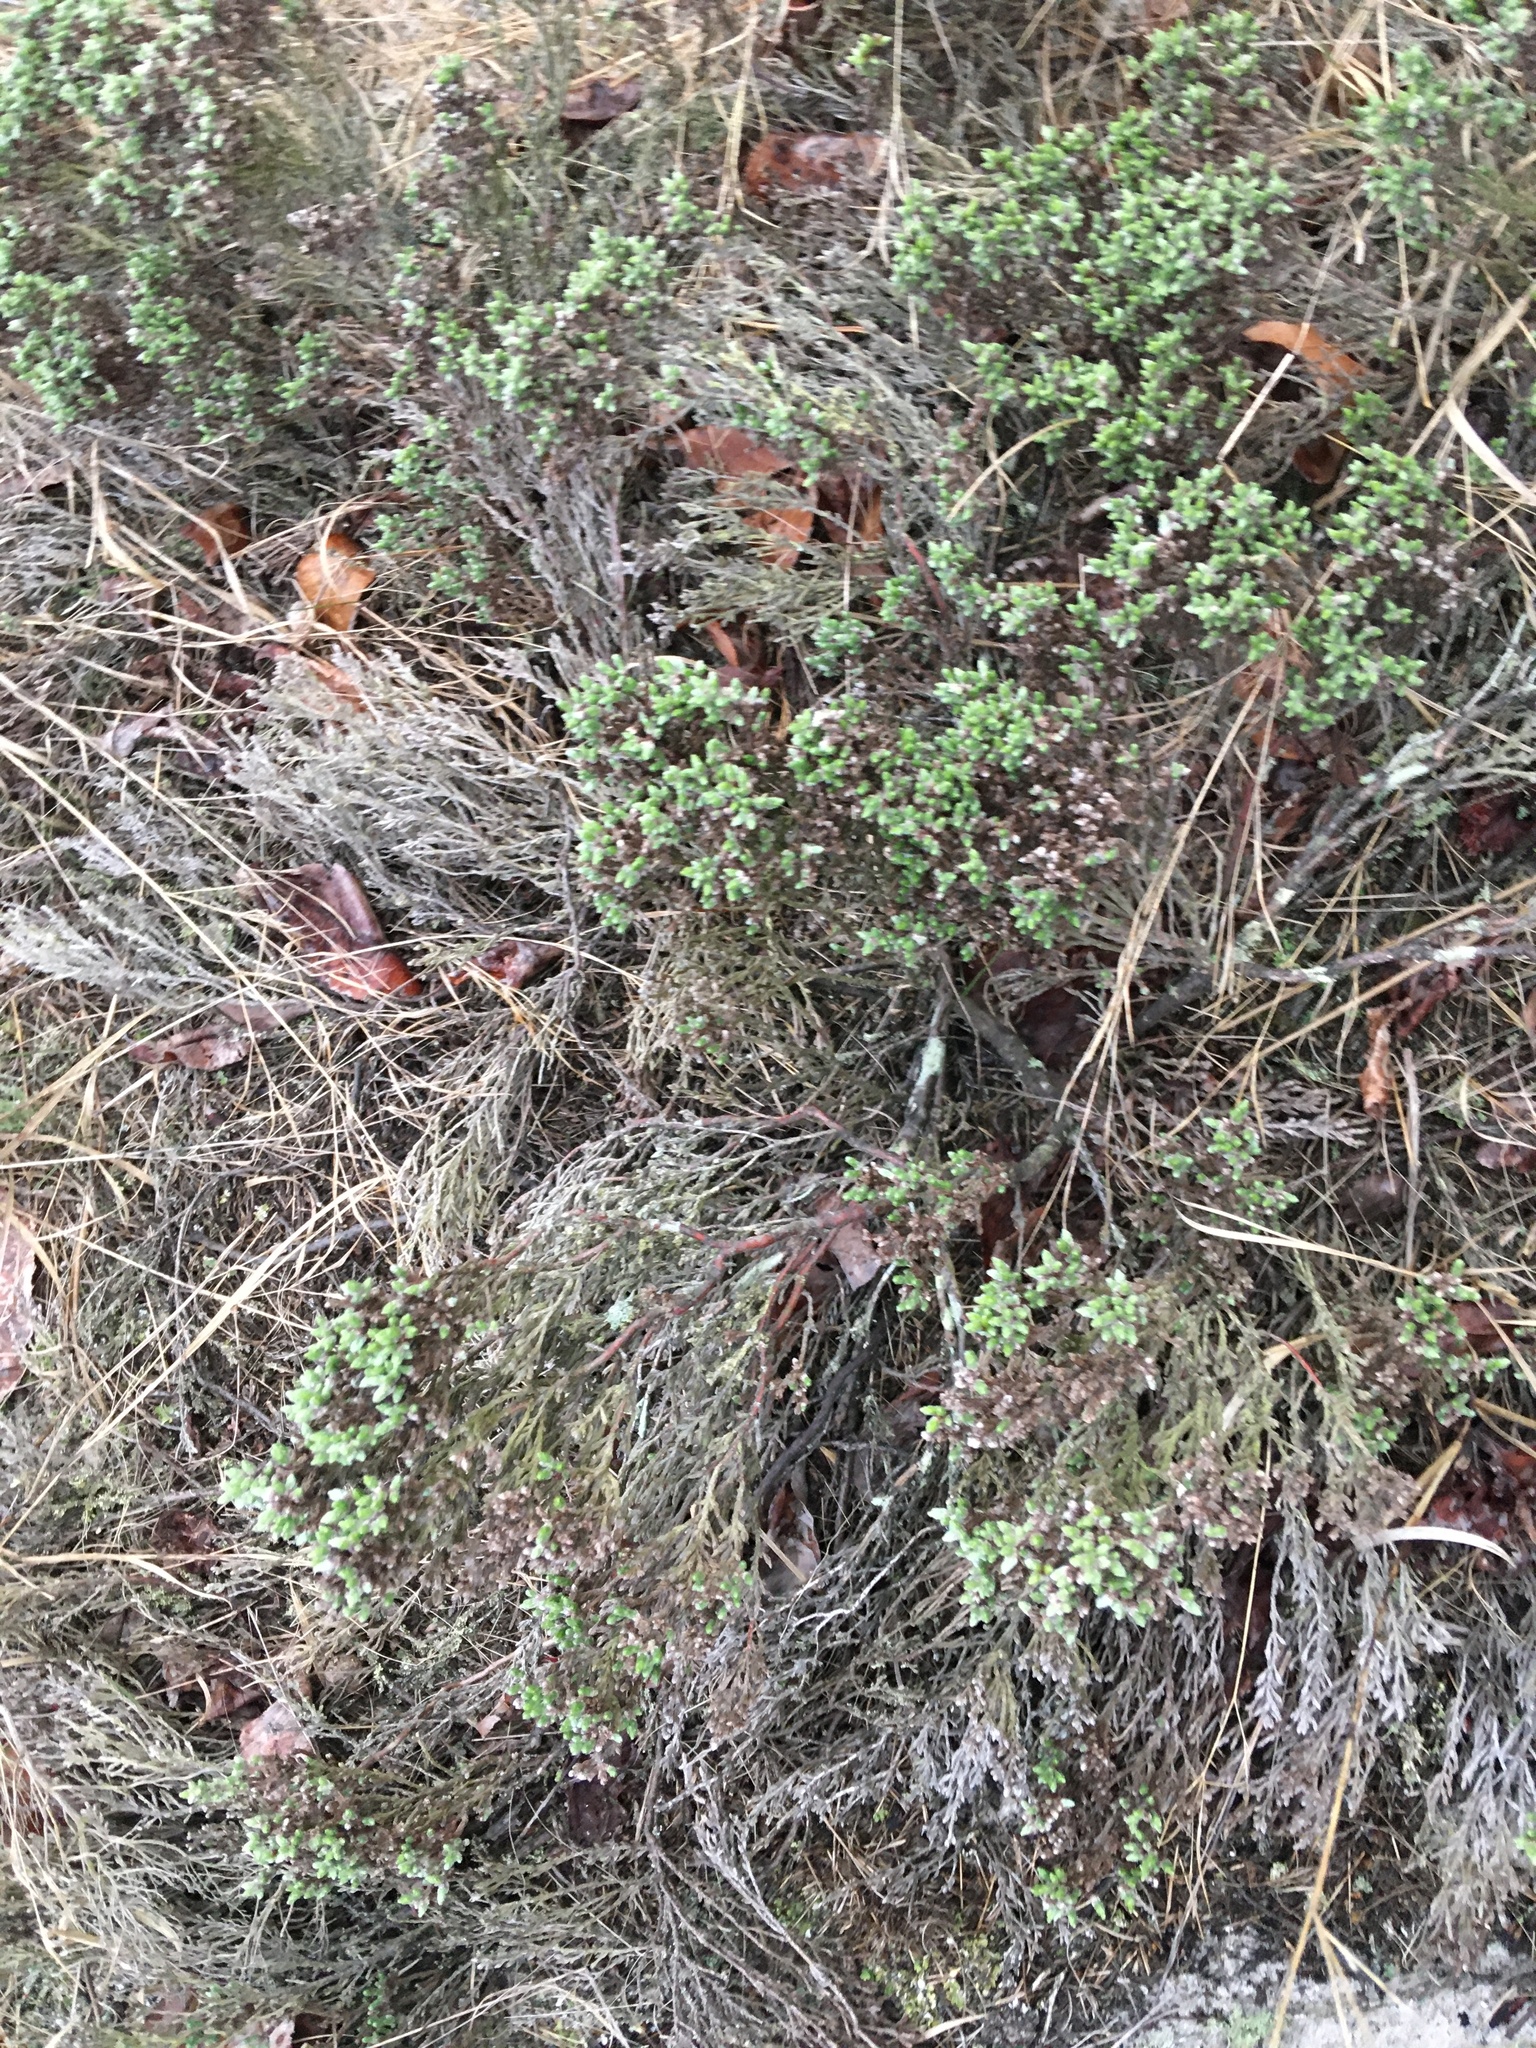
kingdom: Plantae
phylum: Tracheophyta
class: Magnoliopsida
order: Malvales
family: Cistaceae
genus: Hudsonia
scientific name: Hudsonia tomentosa
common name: Beach-heath
